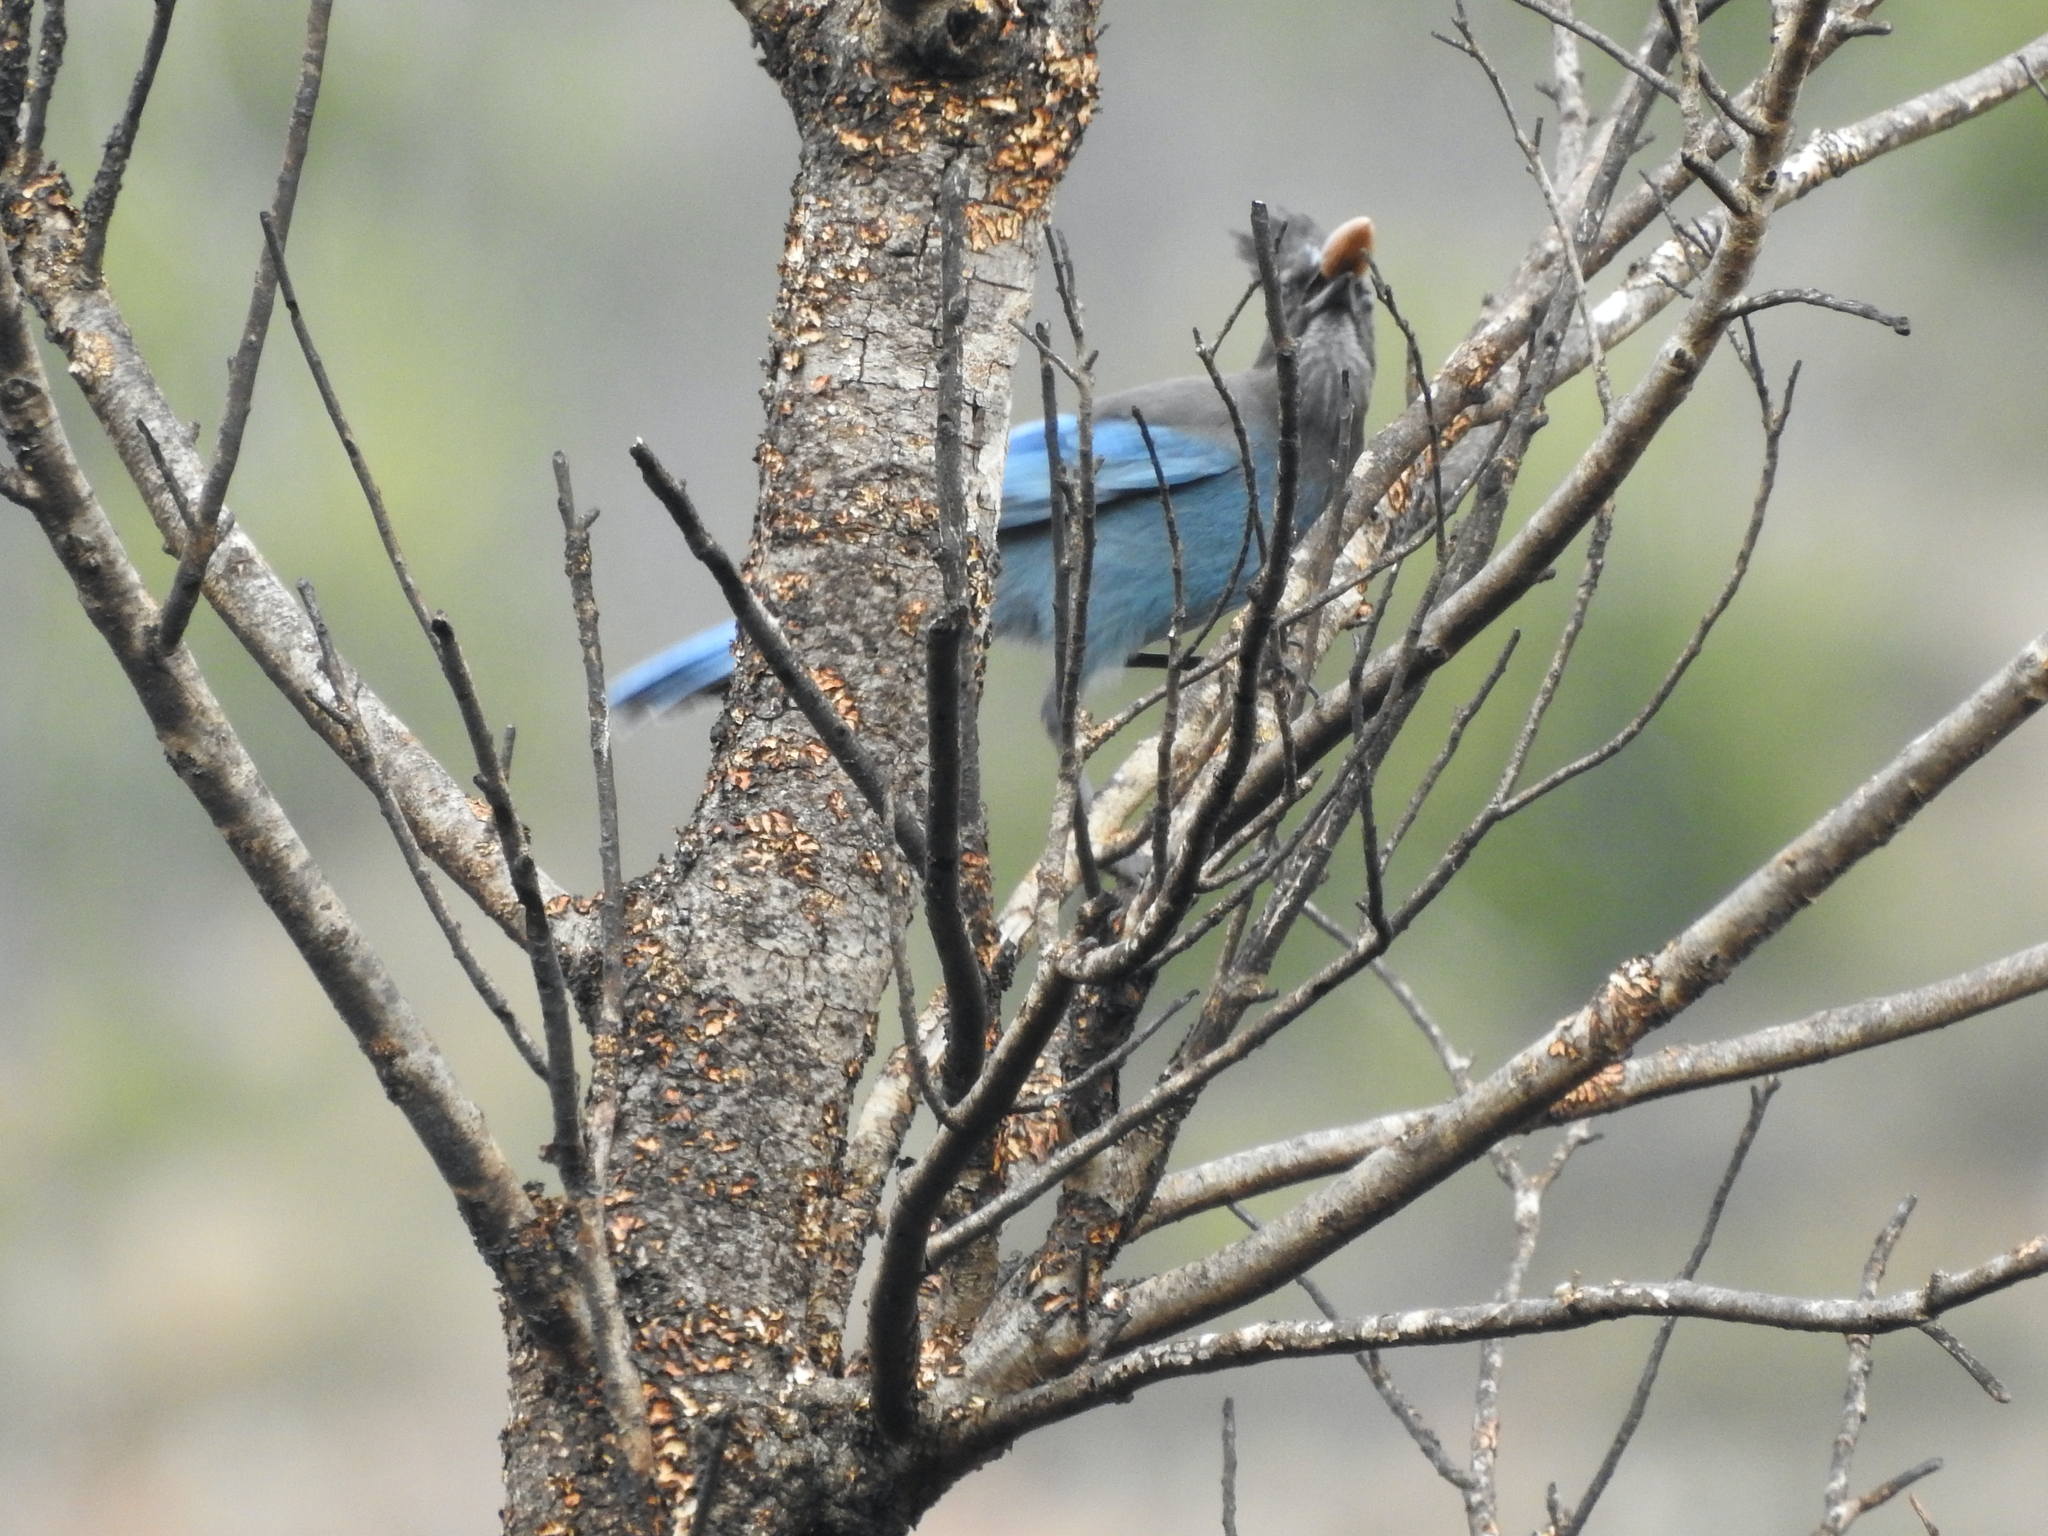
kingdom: Animalia
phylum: Chordata
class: Aves
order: Passeriformes
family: Corvidae
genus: Cyanocitta
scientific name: Cyanocitta stelleri
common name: Steller's jay
